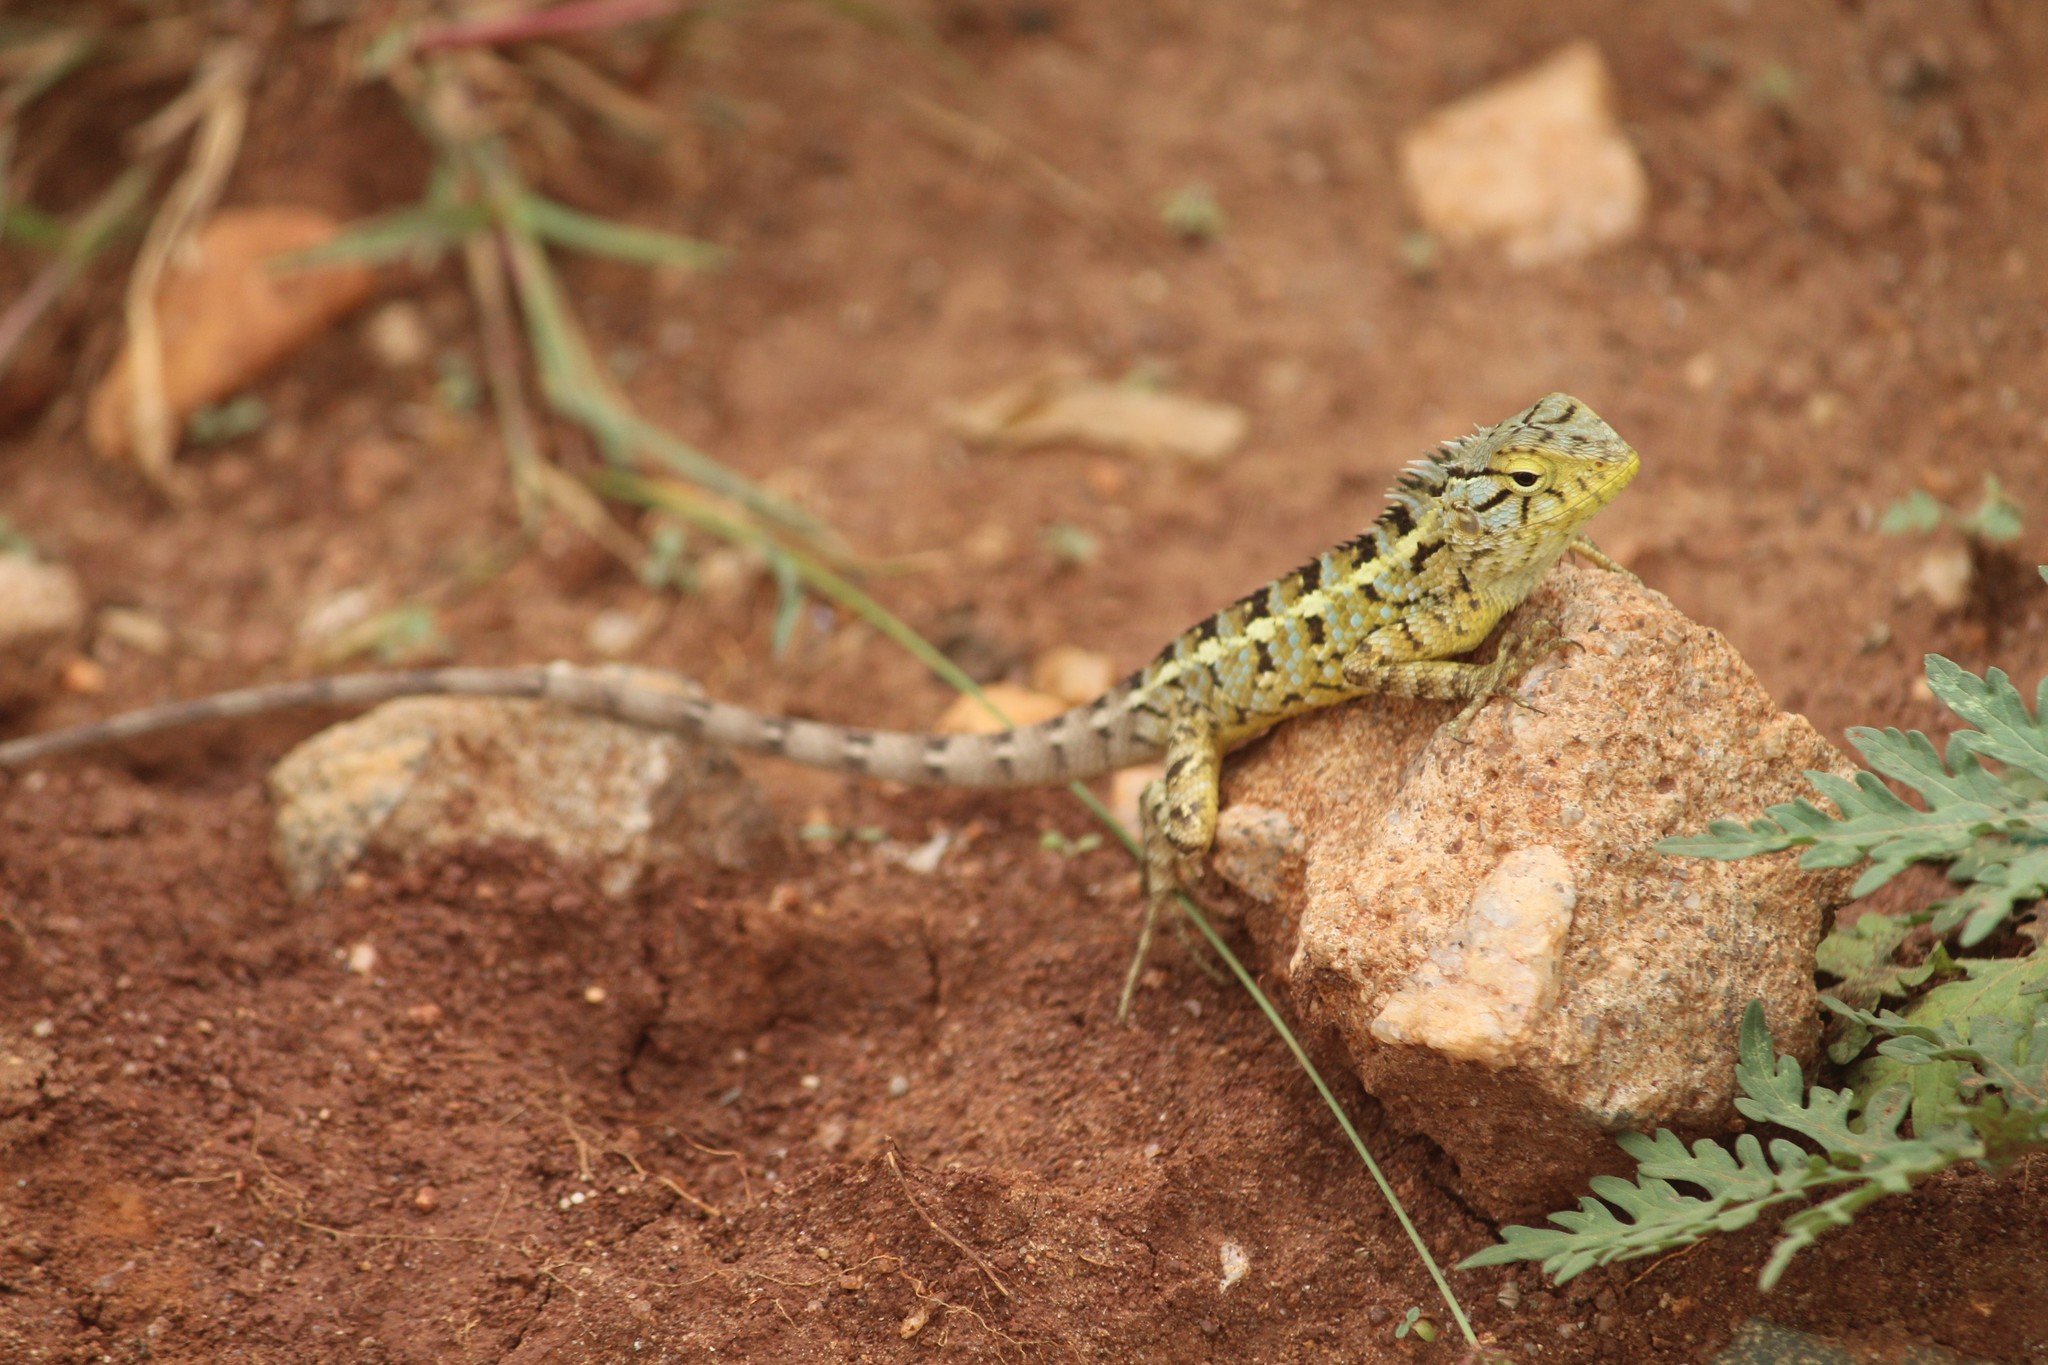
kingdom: Animalia
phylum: Chordata
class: Squamata
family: Agamidae
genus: Calotes
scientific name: Calotes versicolor
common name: Oriental garden lizard
